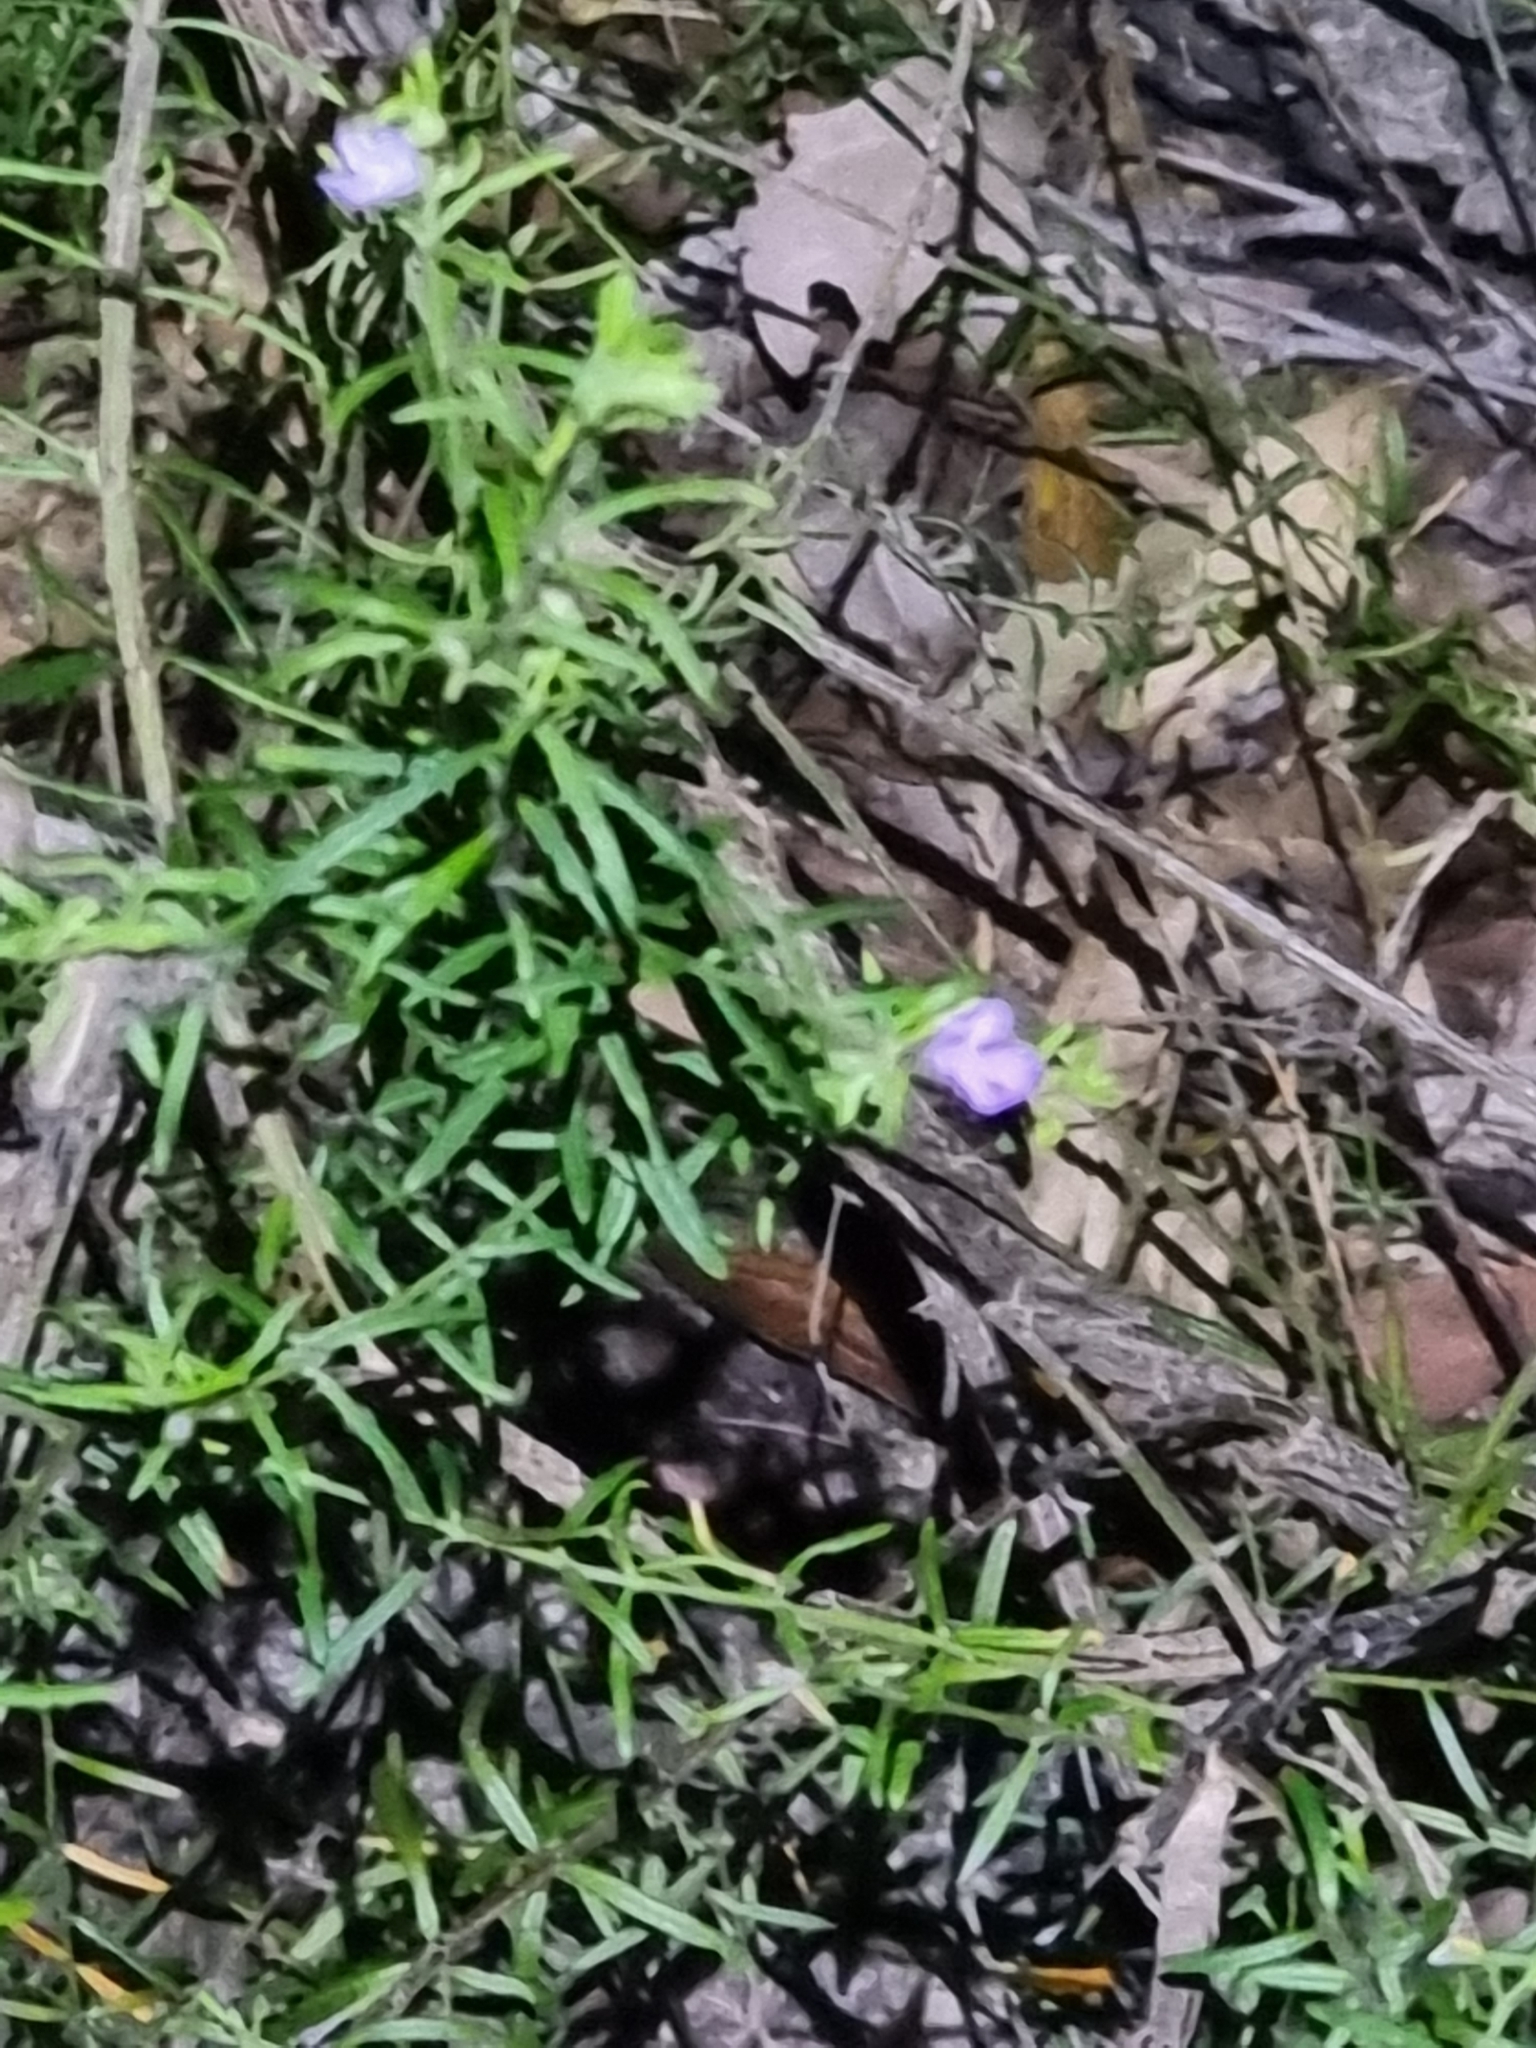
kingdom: Plantae
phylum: Tracheophyta
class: Magnoliopsida
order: Lamiales
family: Lamiaceae
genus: Westringia
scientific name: Westringia eremicola
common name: Slender western-rosemary
